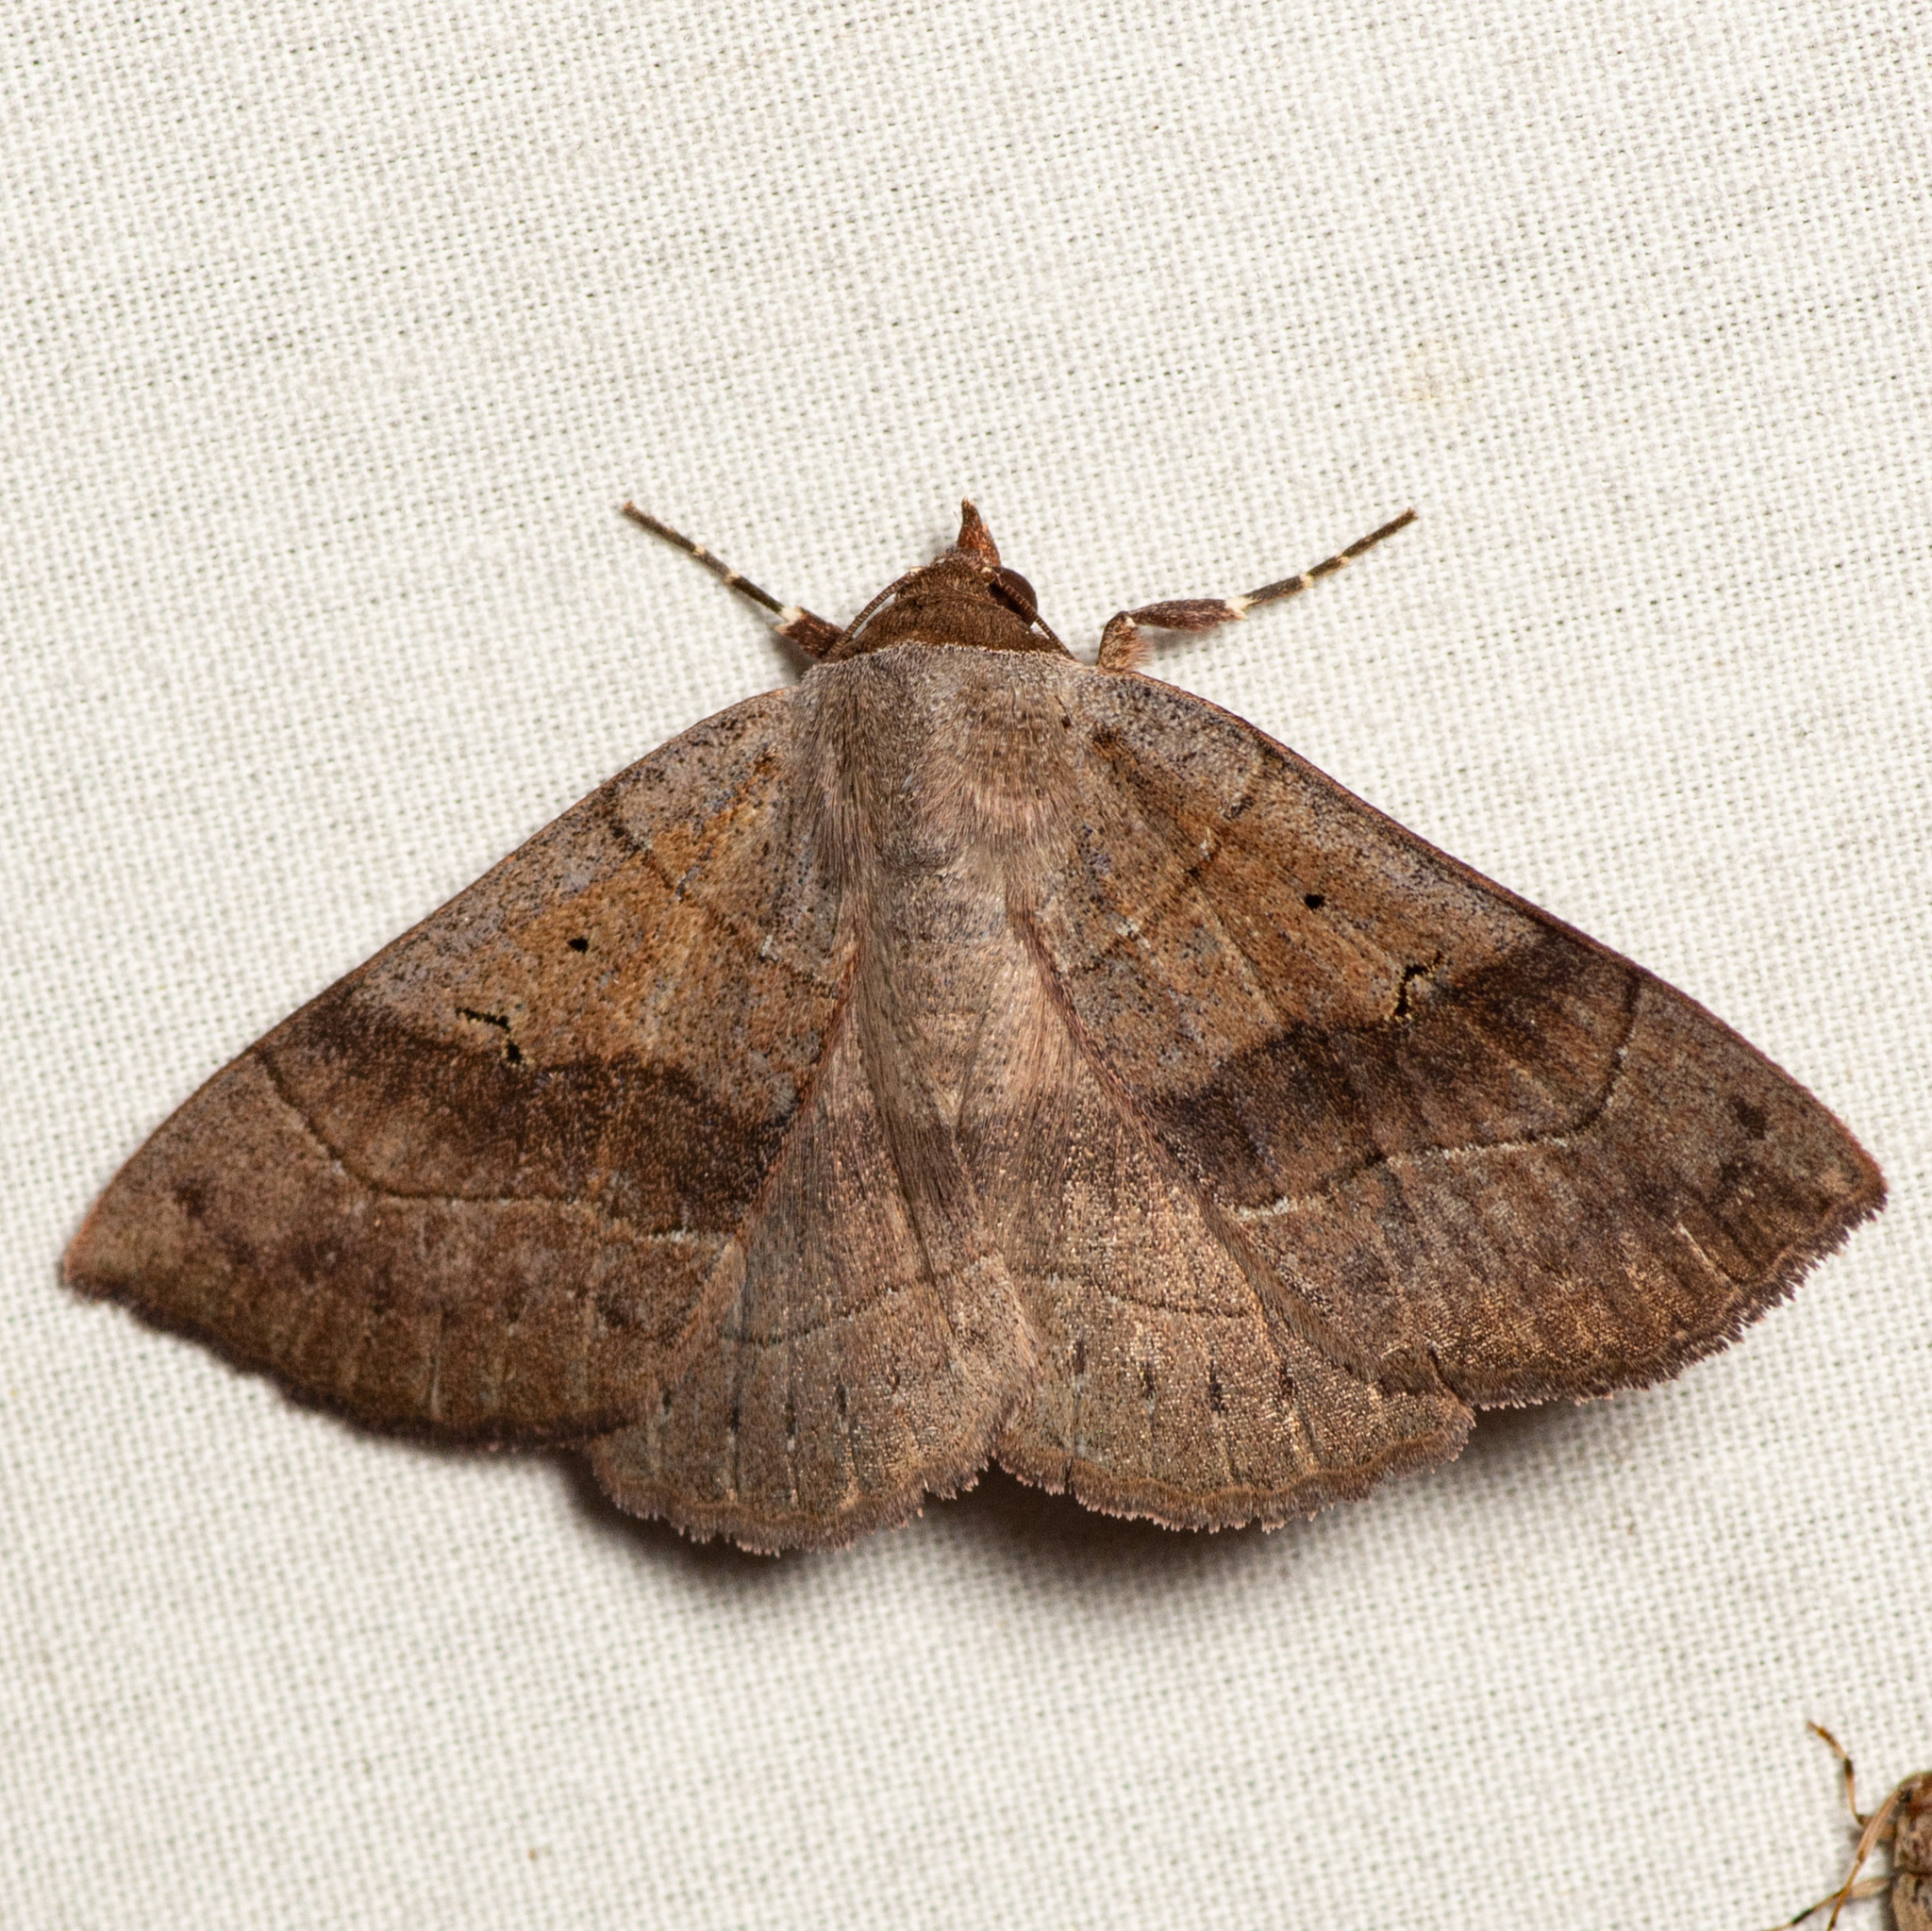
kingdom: Animalia
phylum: Arthropoda
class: Insecta
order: Lepidoptera
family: Erebidae
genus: Panopoda
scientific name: Panopoda carneicosta
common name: Brown panopoda moth
